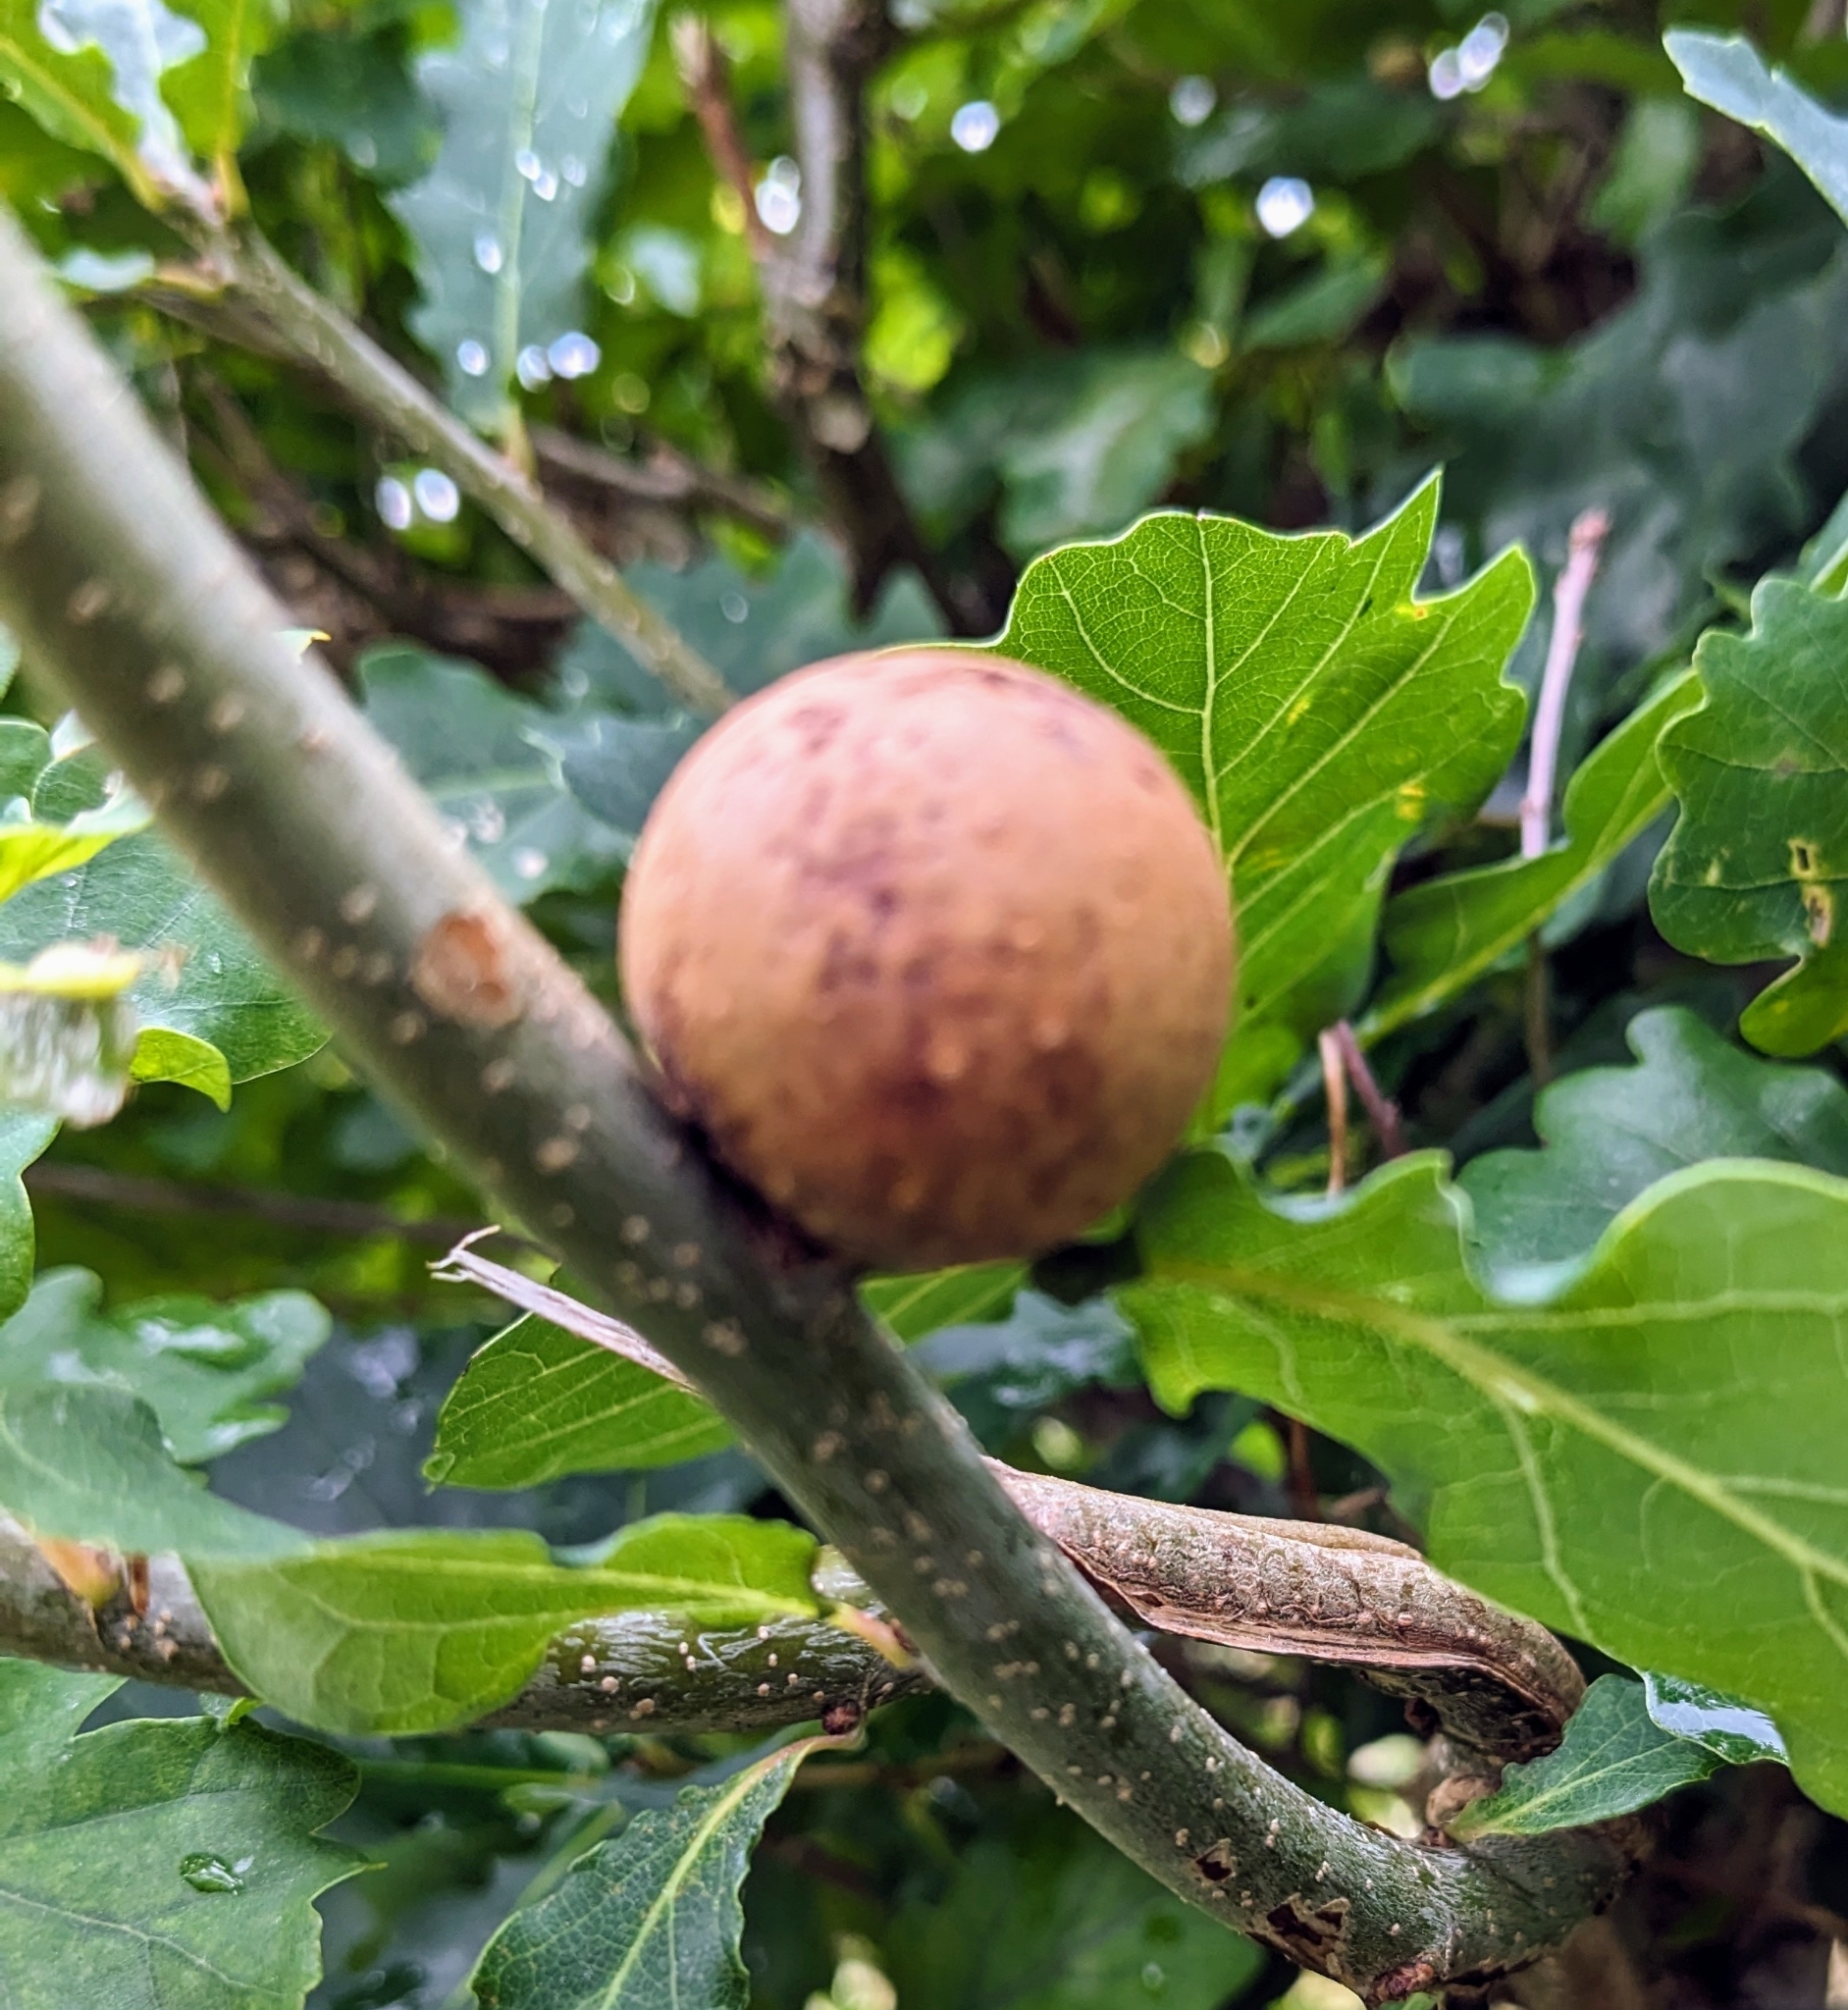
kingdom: Animalia
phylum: Arthropoda
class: Insecta
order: Hymenoptera
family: Cynipidae
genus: Andricus
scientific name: Andricus kollari
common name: Marble gall
